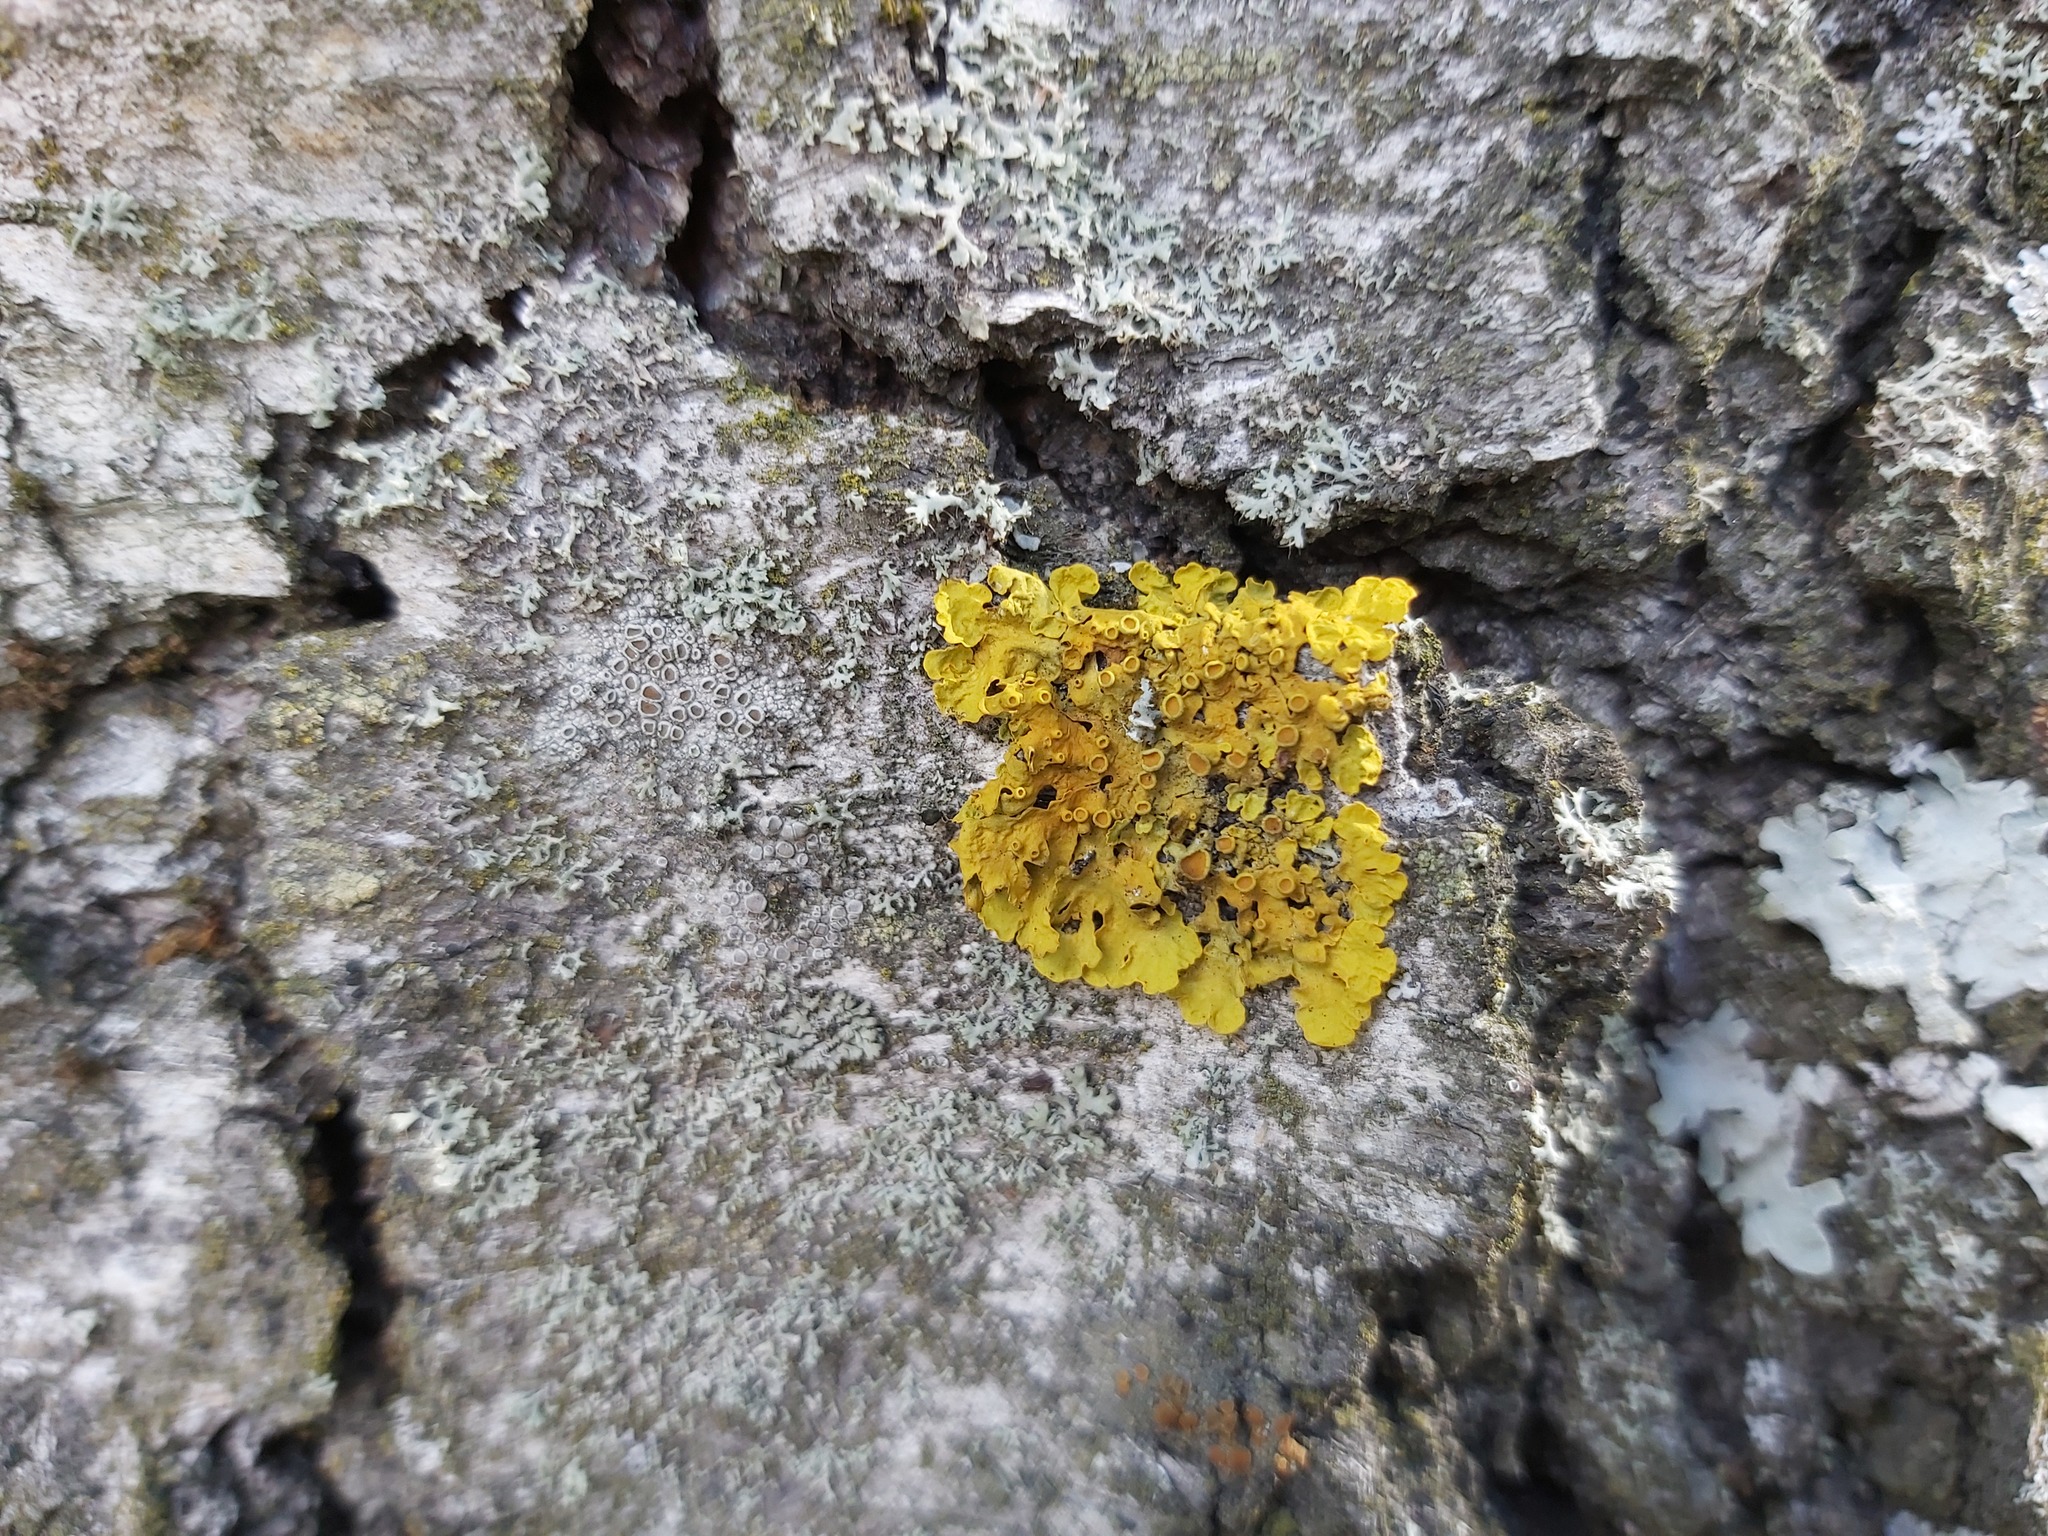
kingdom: Fungi
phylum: Ascomycota
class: Lecanoromycetes
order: Teloschistales
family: Teloschistaceae
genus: Xanthoria
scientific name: Xanthoria parietina
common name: Common orange lichen
